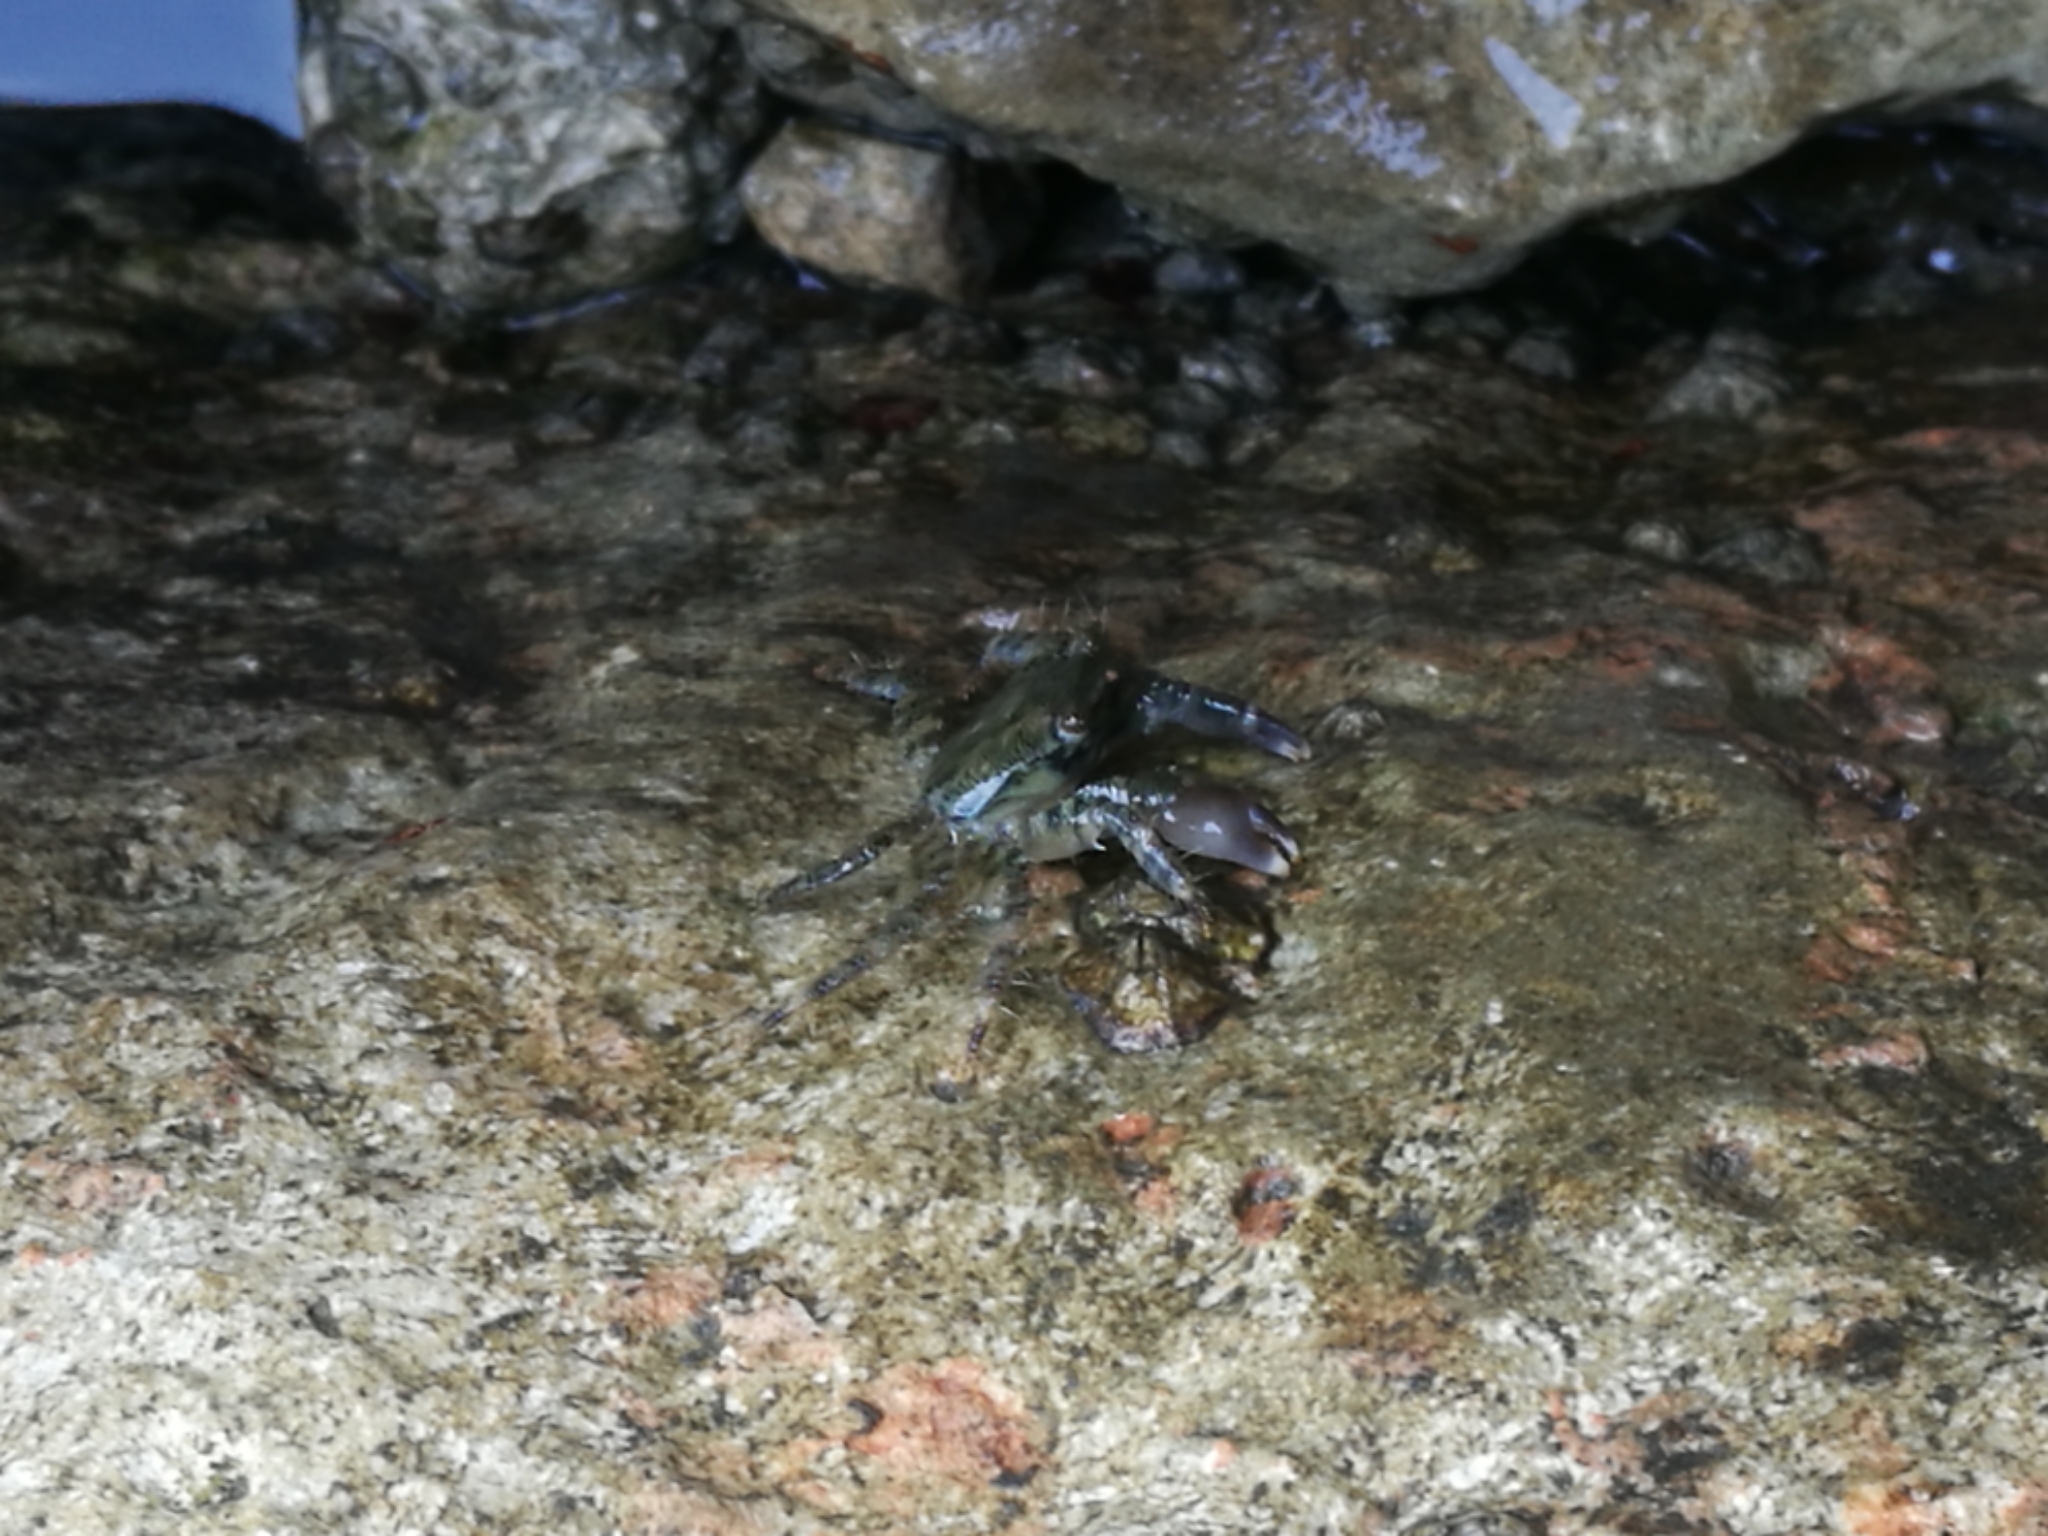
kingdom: Animalia
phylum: Arthropoda
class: Malacostraca
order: Decapoda
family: Grapsidae
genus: Pachygrapsus
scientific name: Pachygrapsus marmoratus
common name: Marbled rock crab
